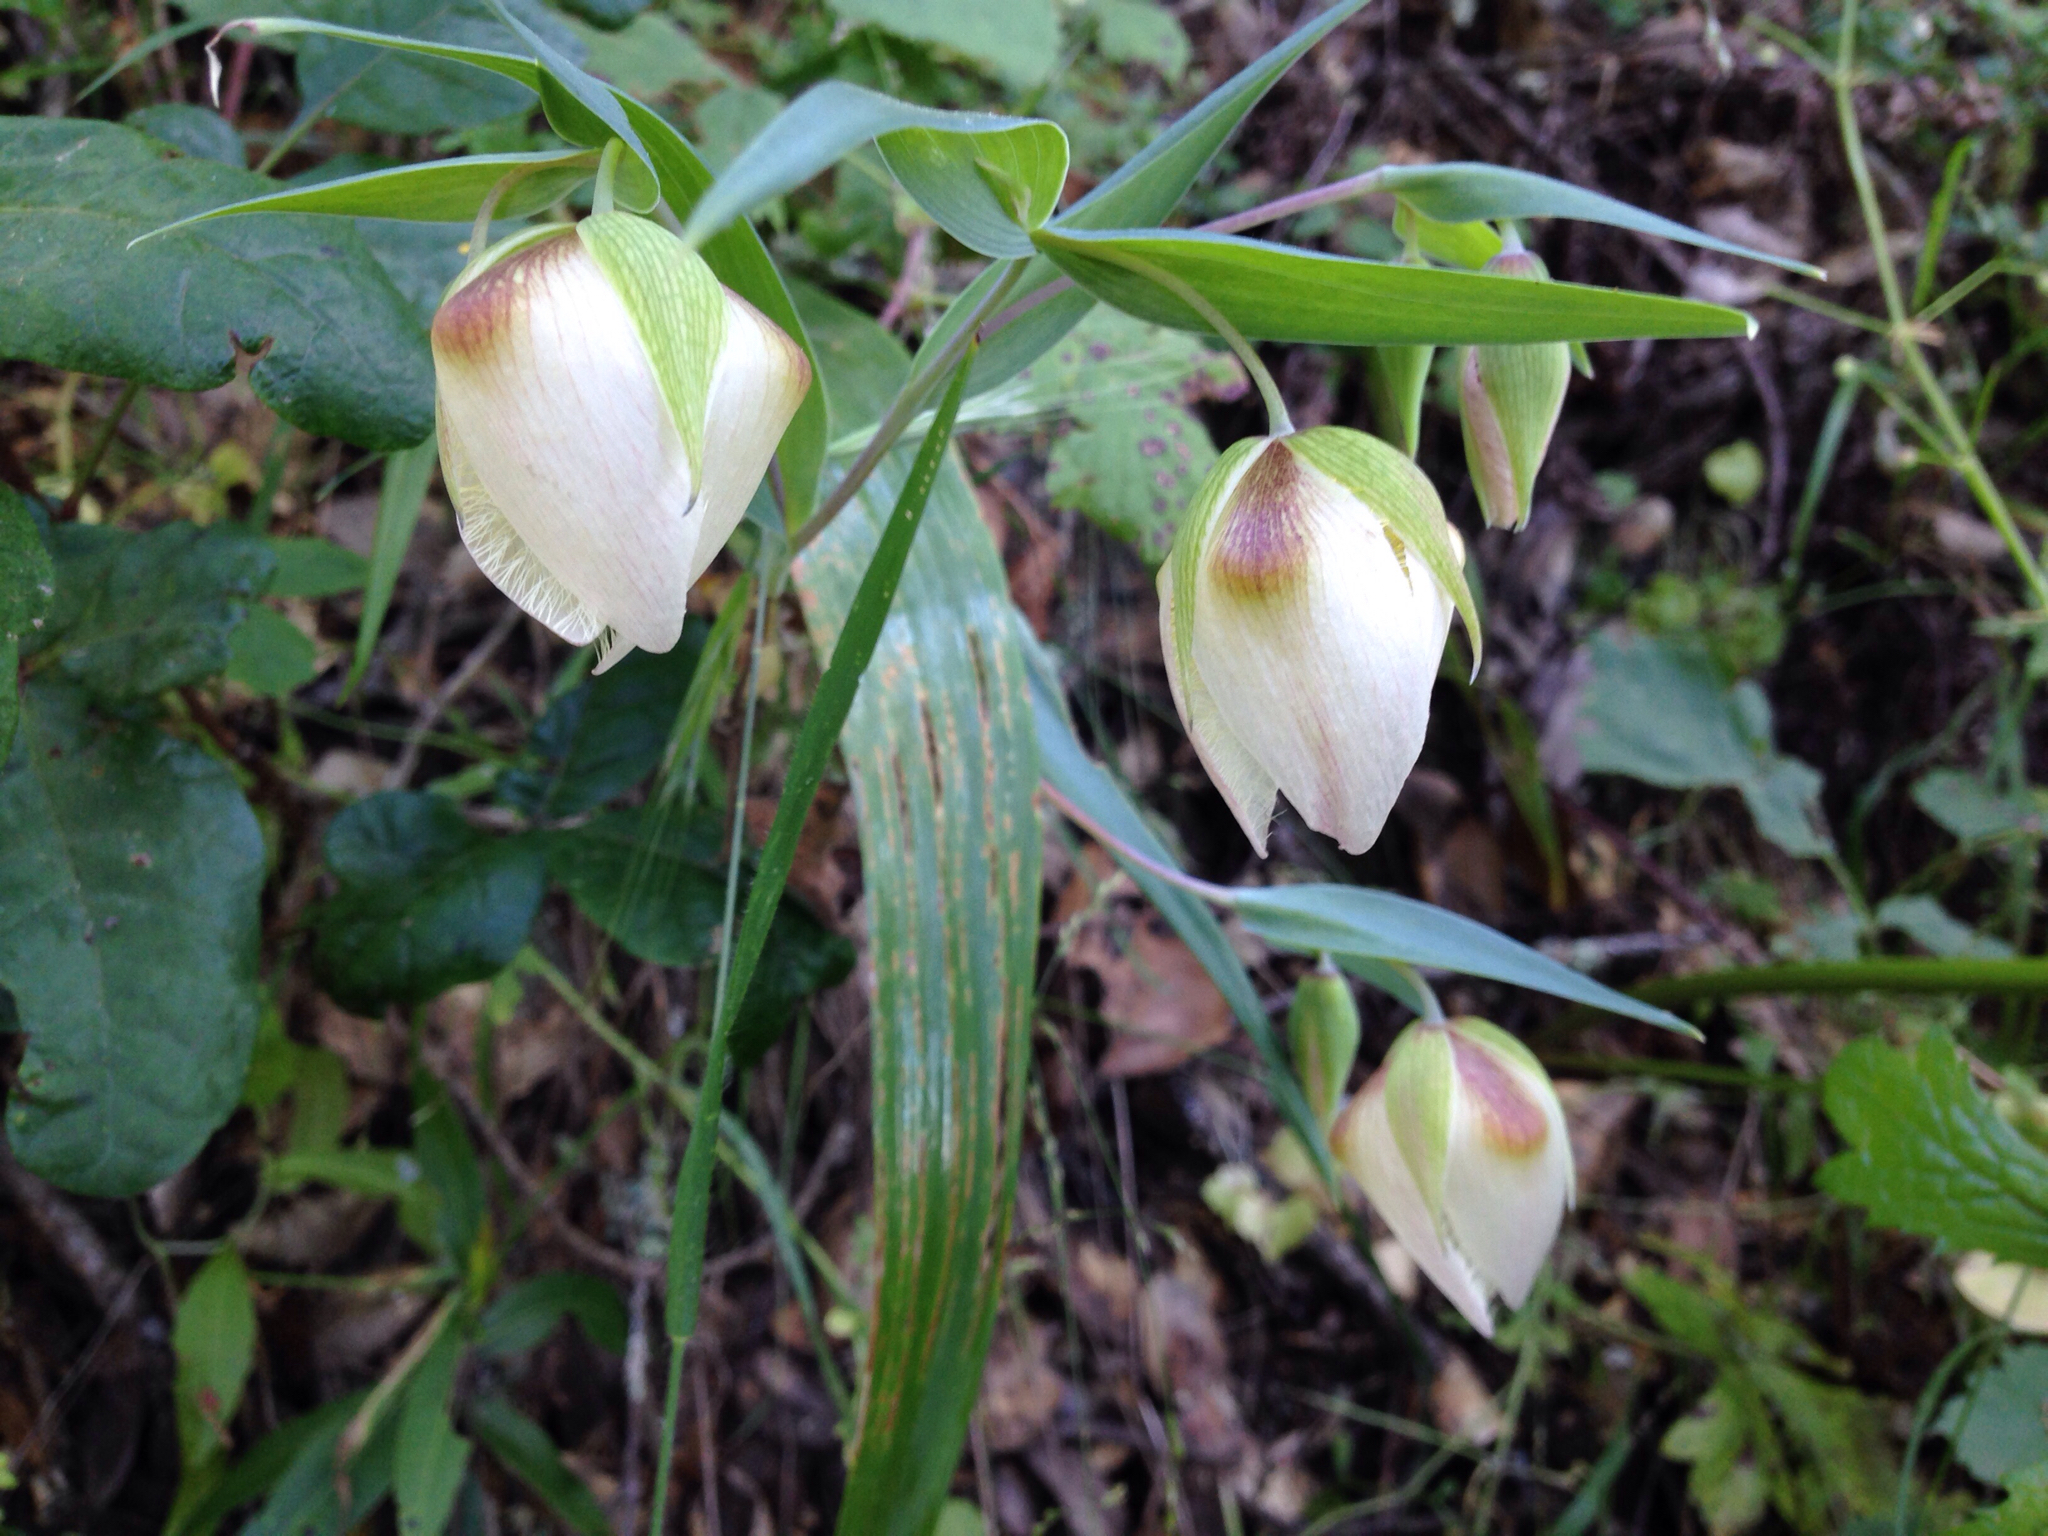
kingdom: Plantae
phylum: Tracheophyta
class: Liliopsida
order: Liliales
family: Liliaceae
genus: Calochortus
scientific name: Calochortus albus
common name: Fairy-lantern
